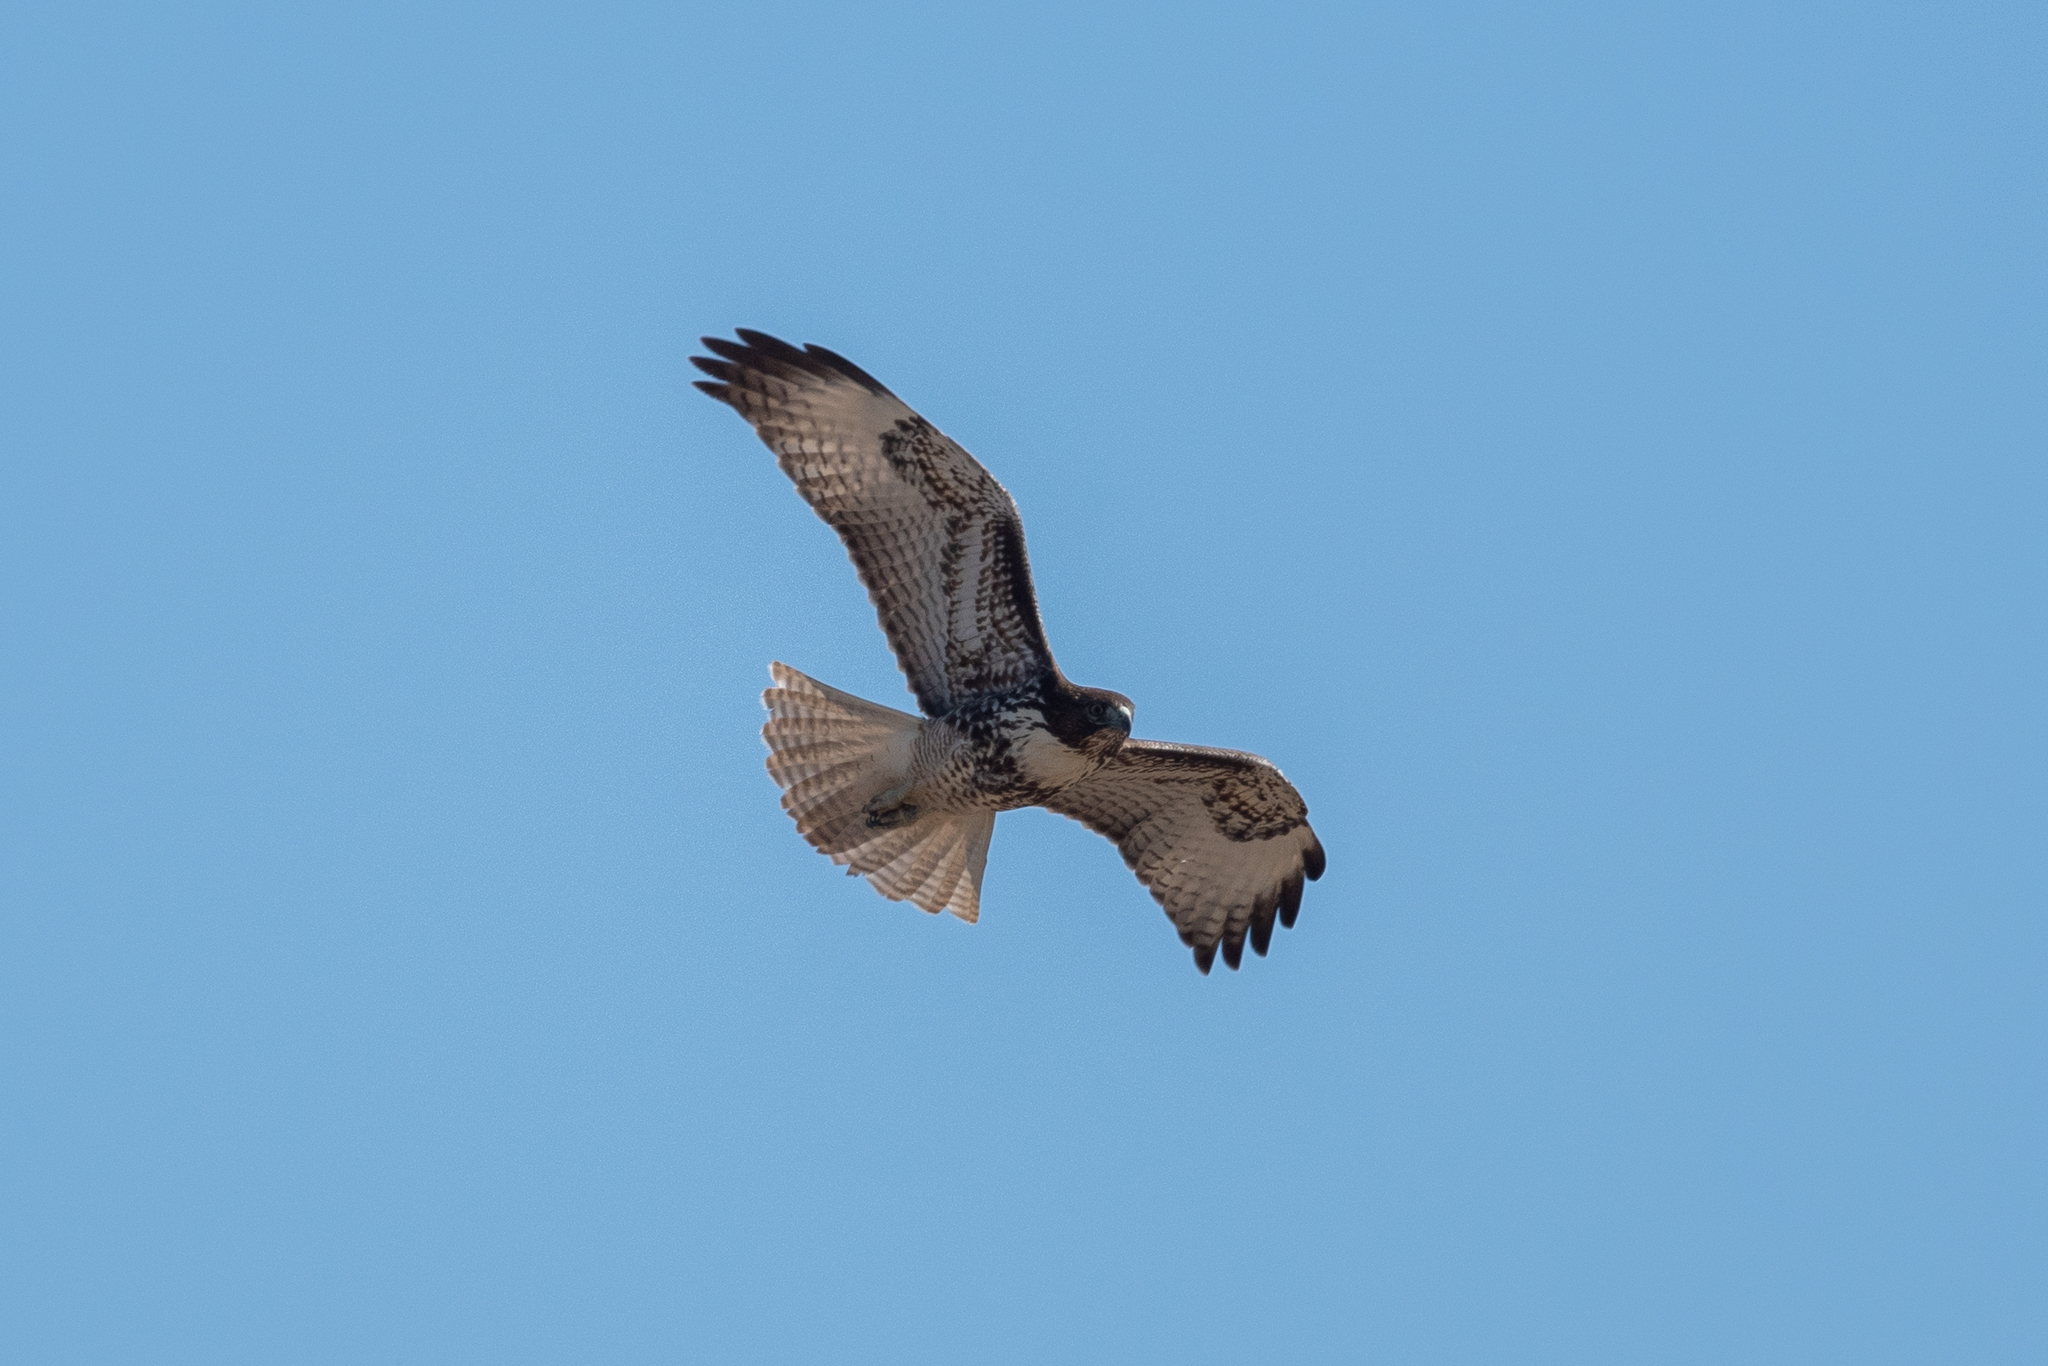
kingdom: Animalia
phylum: Chordata
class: Aves
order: Accipitriformes
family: Accipitridae
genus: Buteo
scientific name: Buteo jamaicensis
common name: Red-tailed hawk
